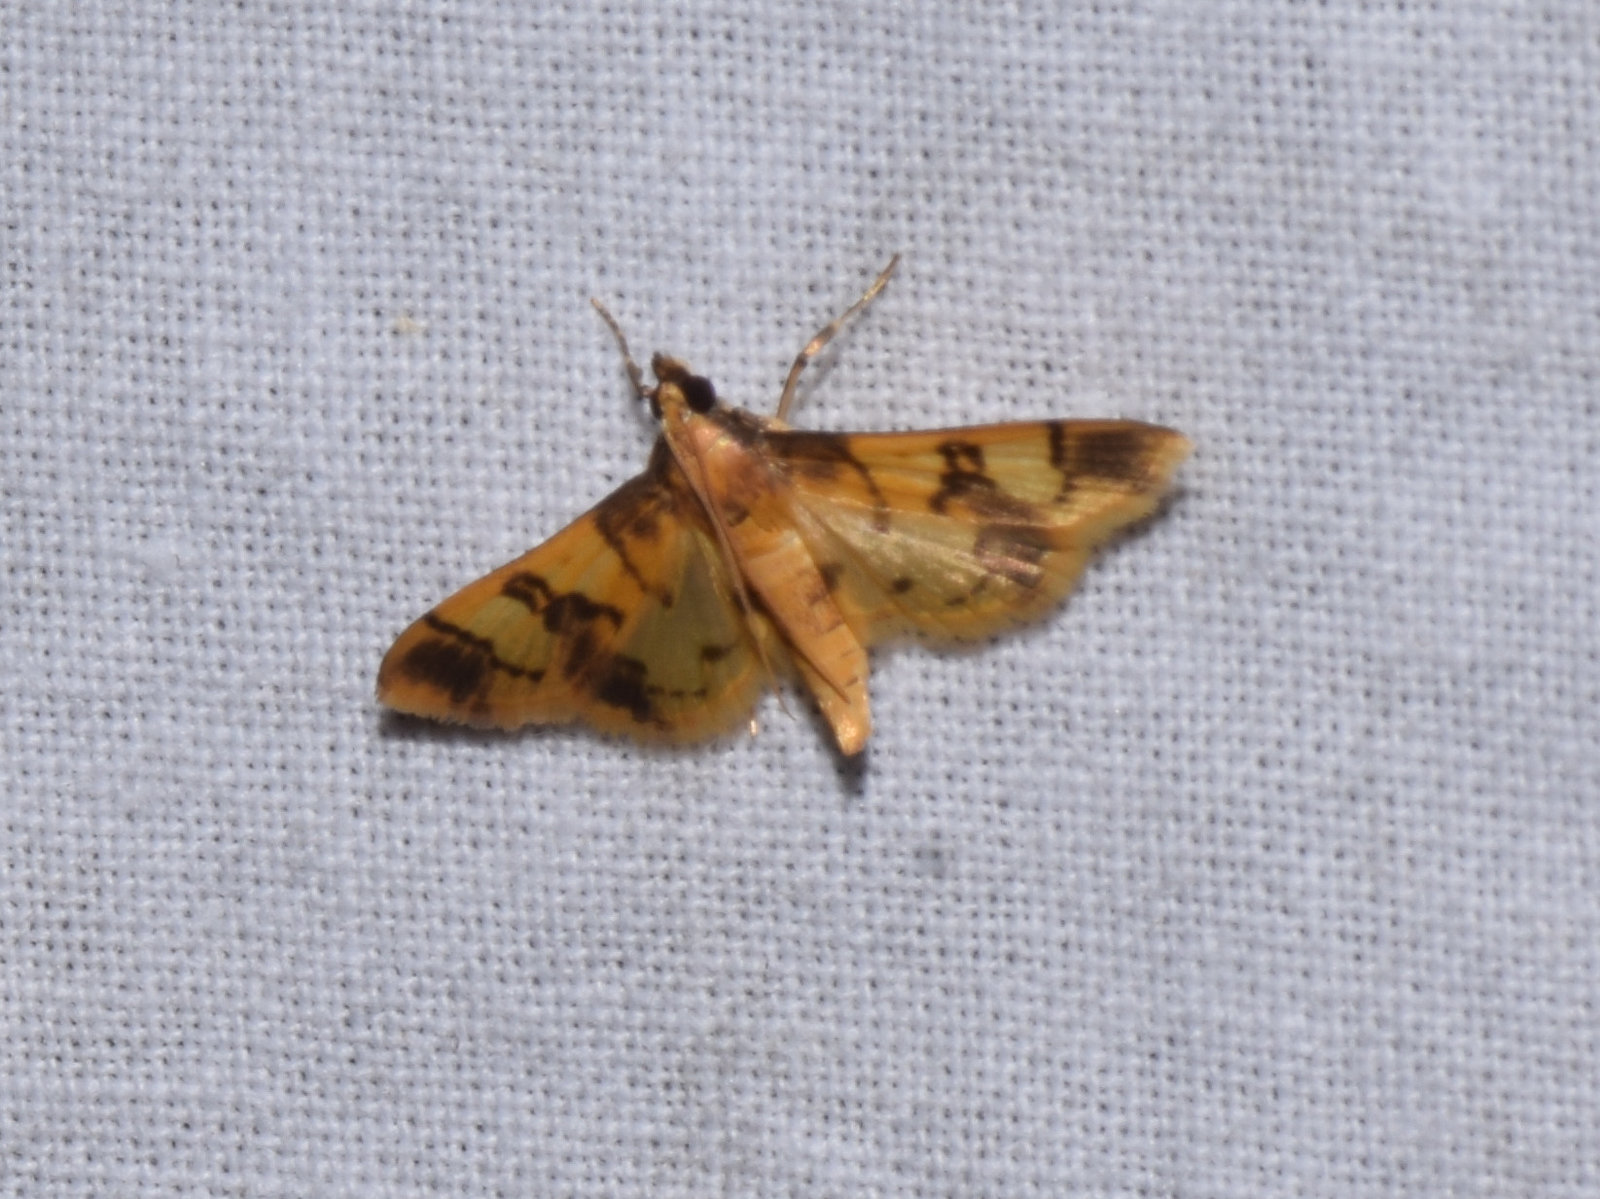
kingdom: Animalia
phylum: Arthropoda
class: Insecta
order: Lepidoptera
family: Crambidae
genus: Orphanostigma
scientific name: Orphanostigma angustale
